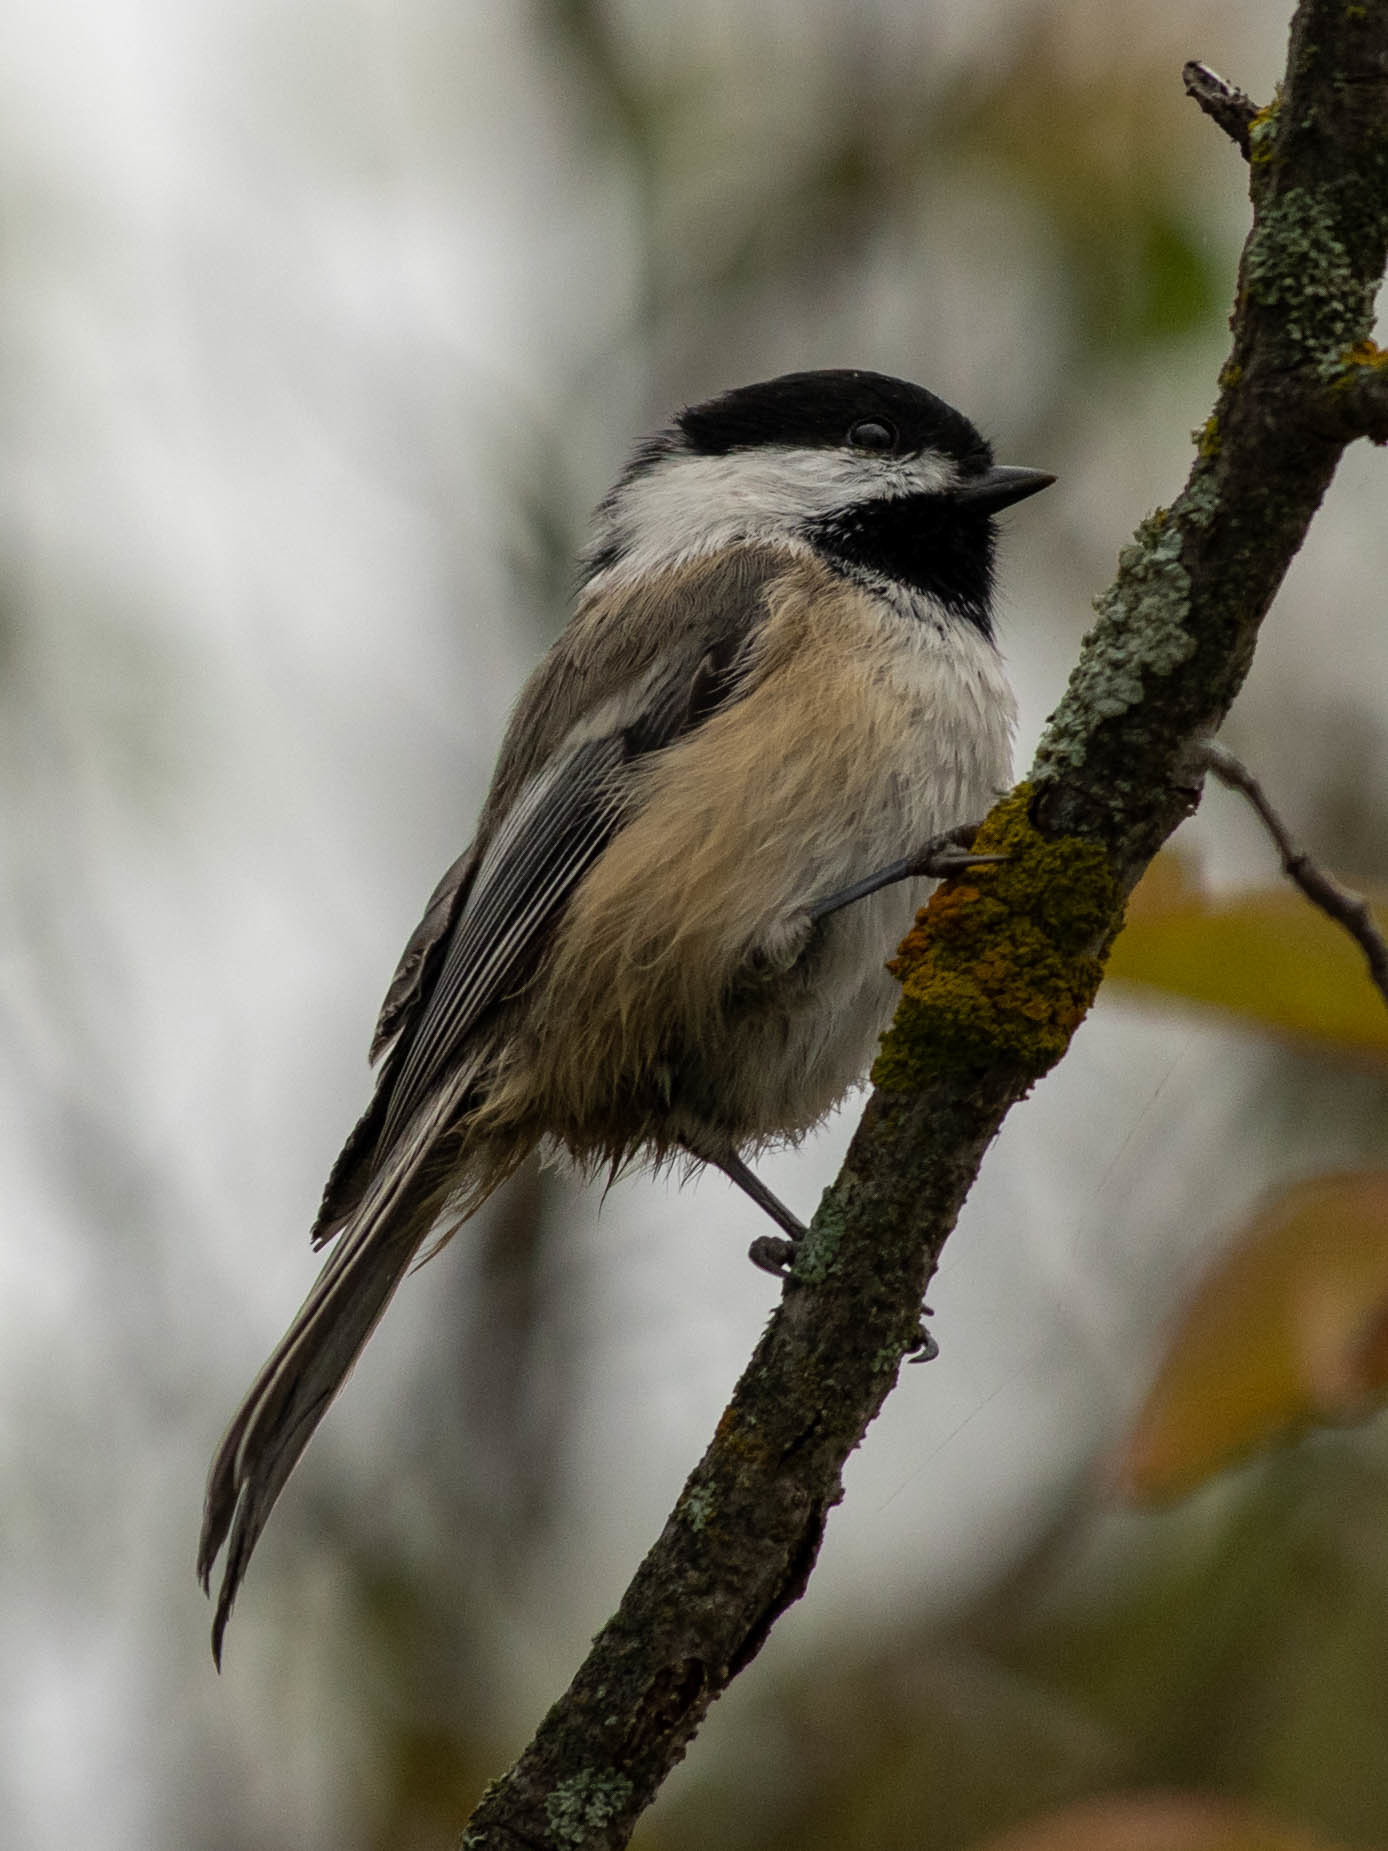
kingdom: Animalia
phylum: Chordata
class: Aves
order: Passeriformes
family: Paridae
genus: Poecile
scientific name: Poecile atricapillus
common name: Black-capped chickadee
